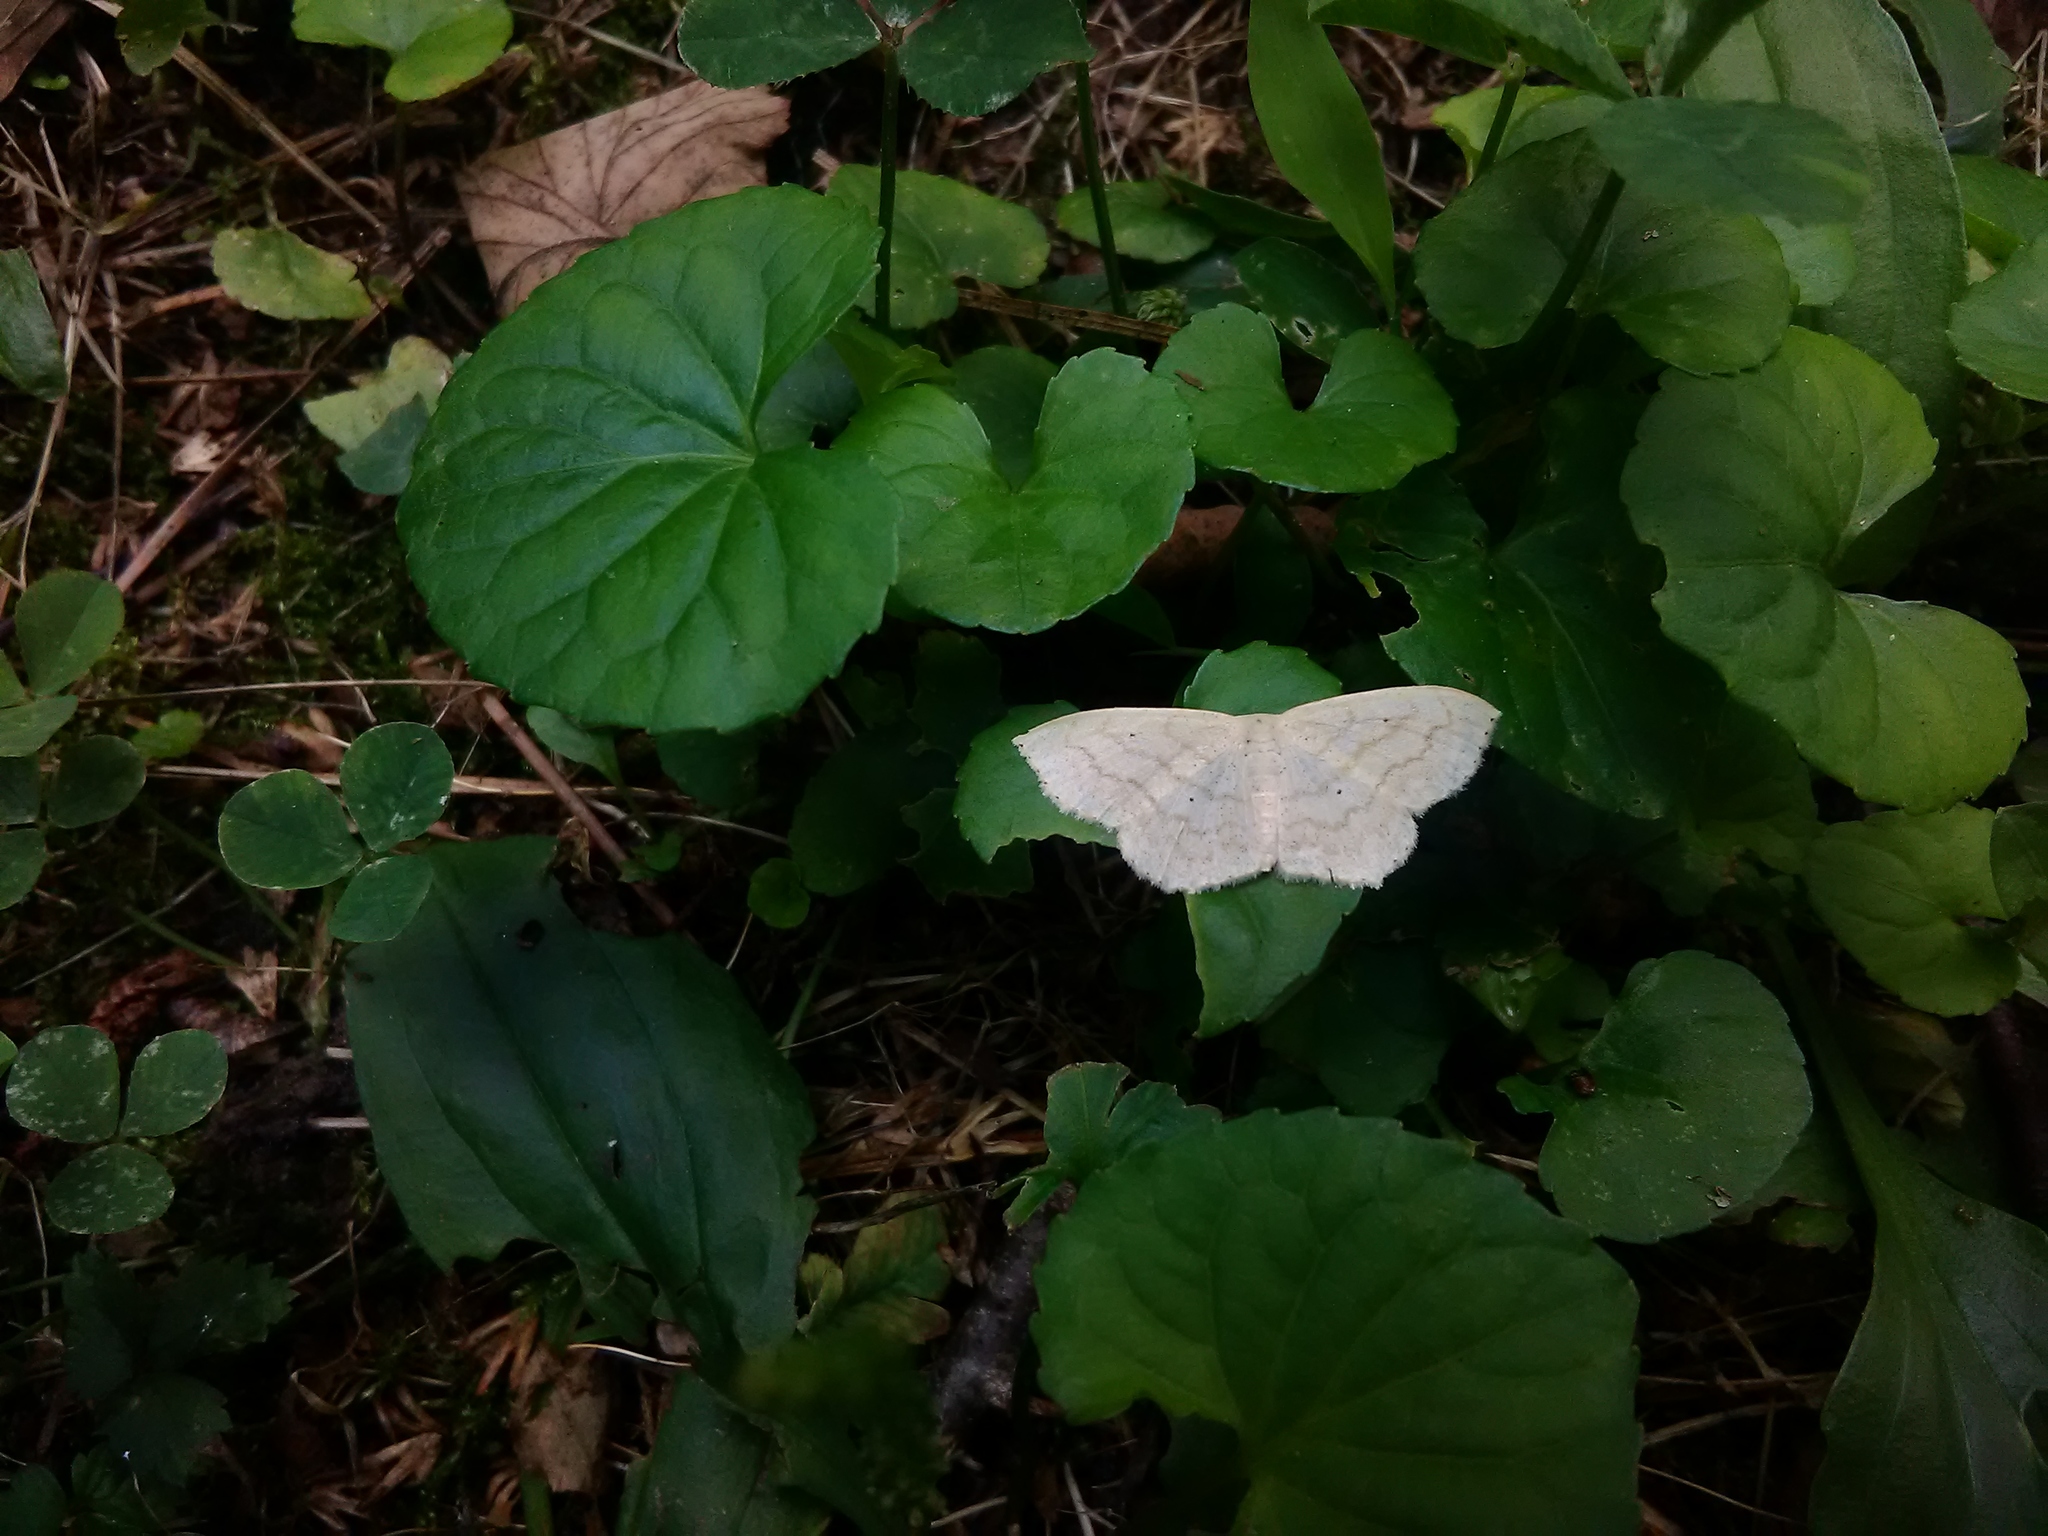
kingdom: Animalia
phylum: Arthropoda
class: Insecta
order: Lepidoptera
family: Geometridae
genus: Scopula
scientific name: Scopula limboundata
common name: Large lace border
